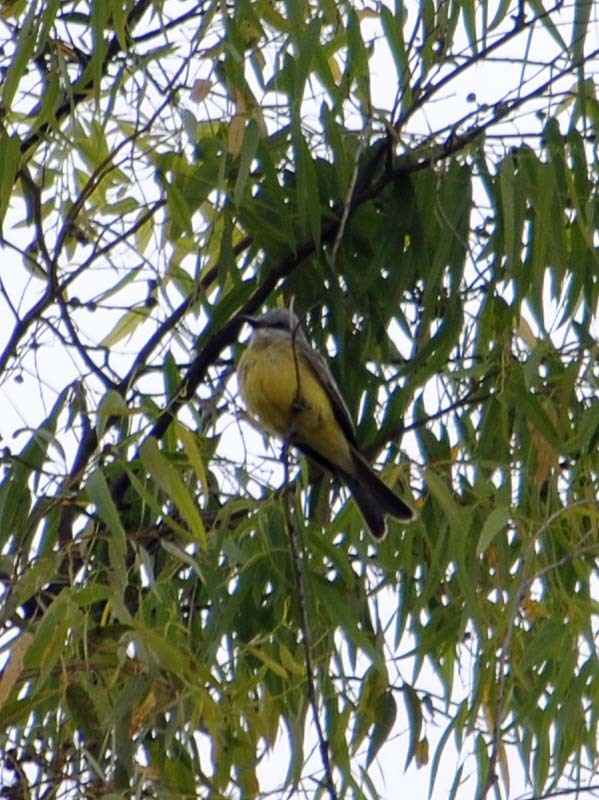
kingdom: Animalia
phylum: Chordata
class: Aves
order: Passeriformes
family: Tyrannidae
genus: Tyrannus
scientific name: Tyrannus melancholicus
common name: Tropical kingbird
